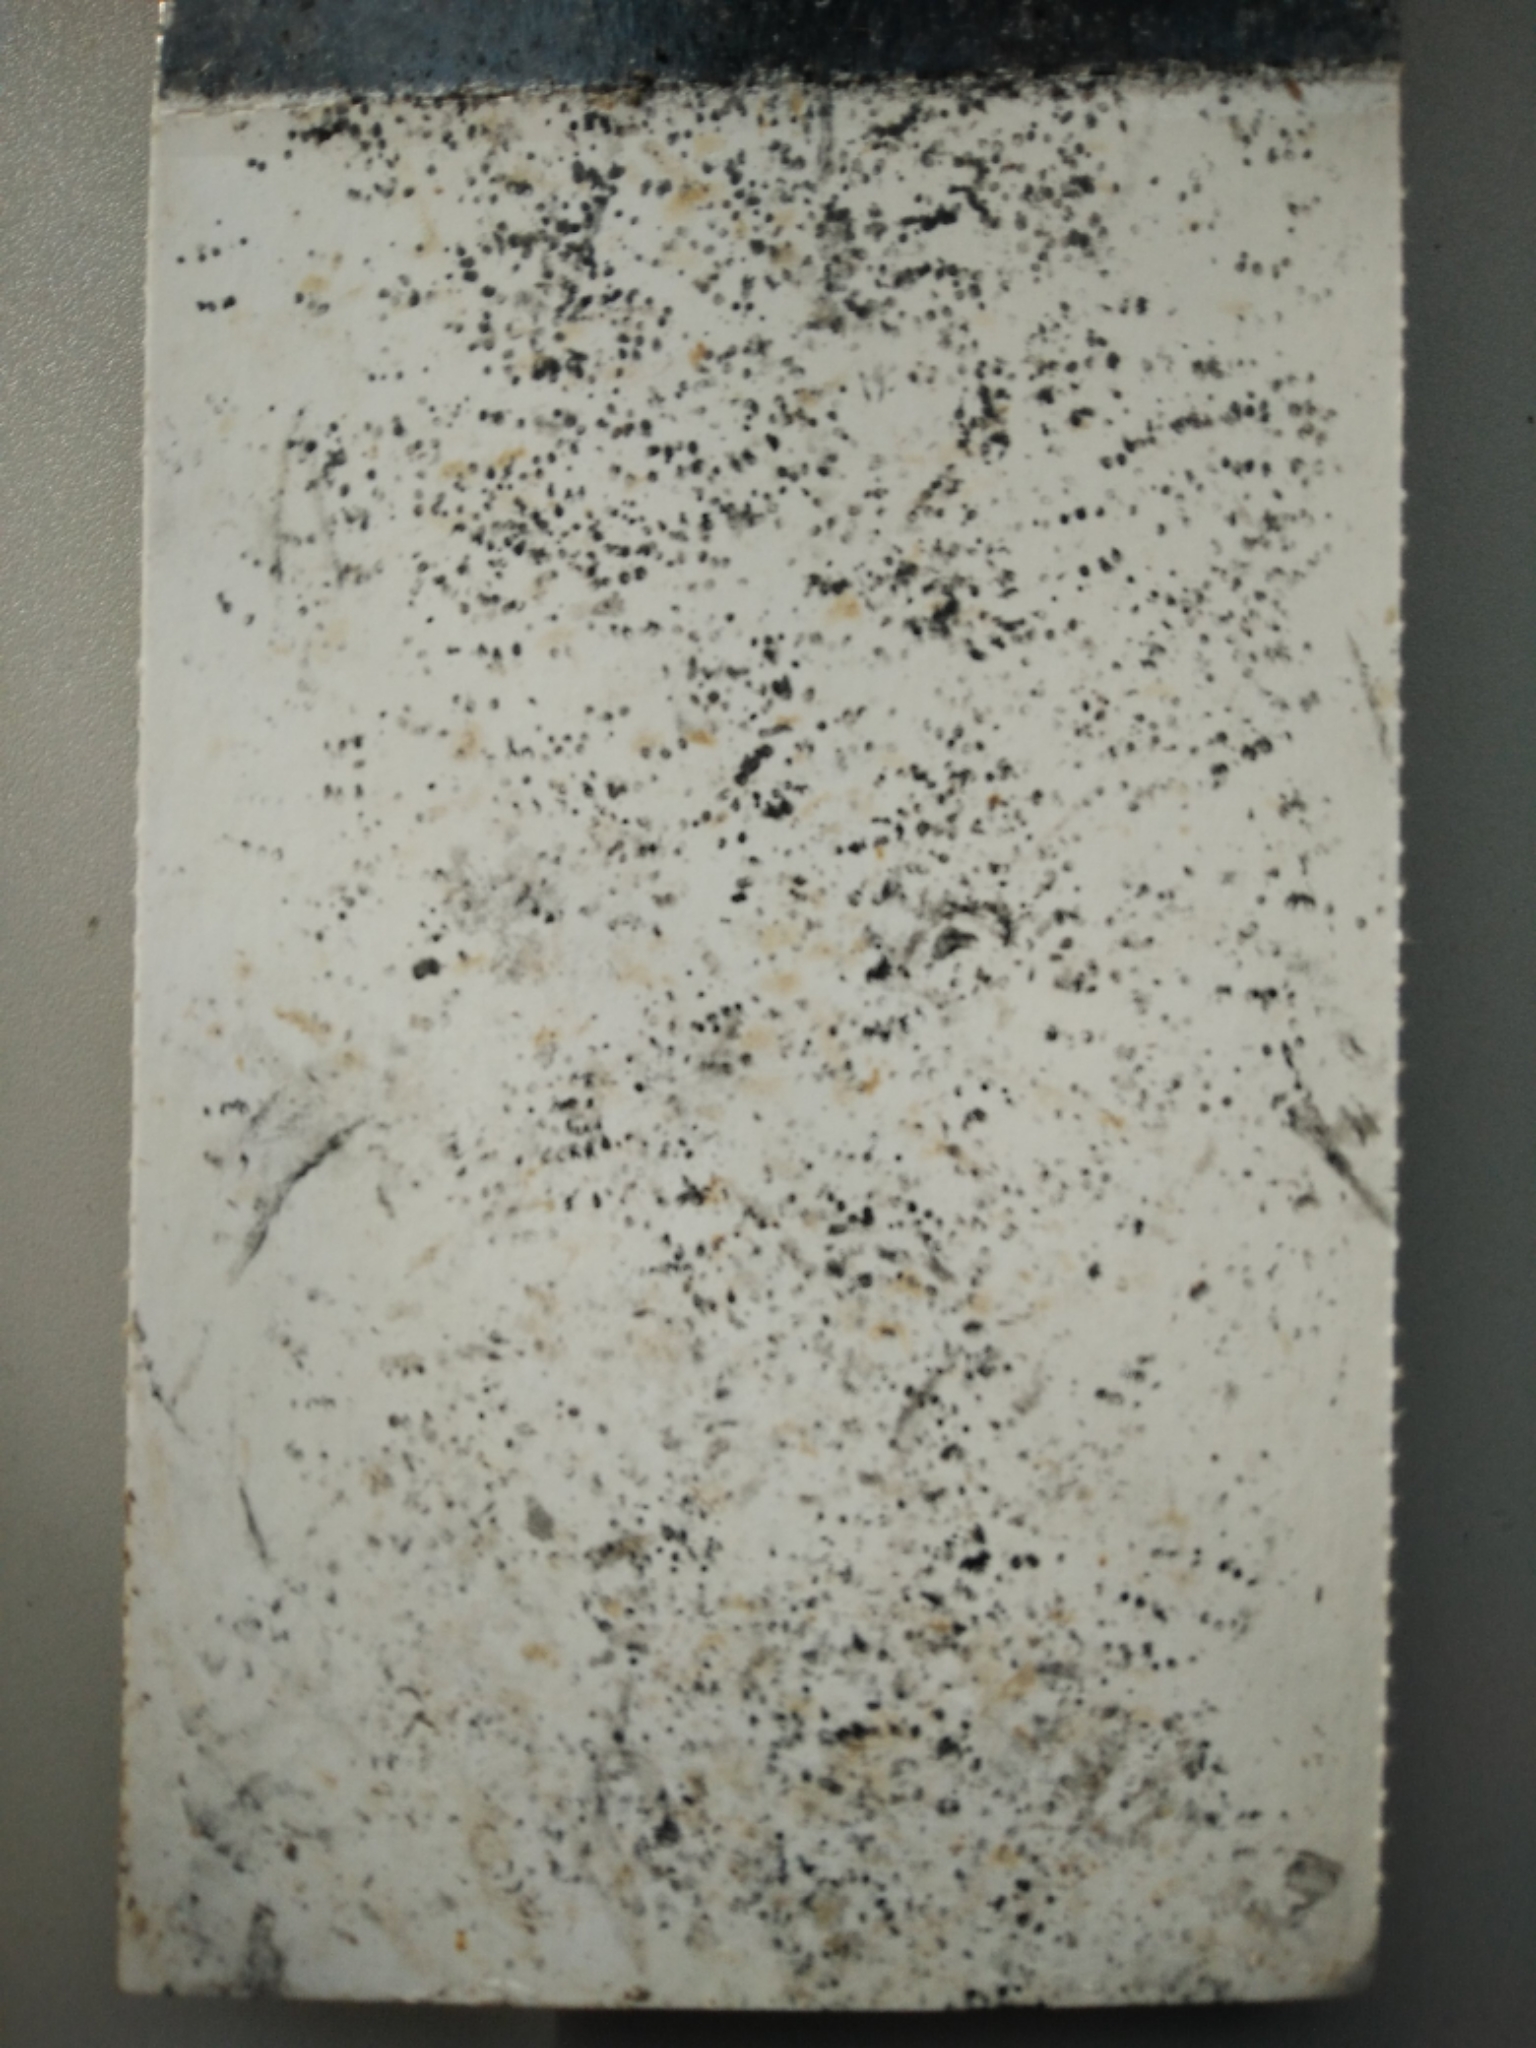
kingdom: Animalia
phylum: Chordata
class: Mammalia
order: Rodentia
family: Muridae
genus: Mus
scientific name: Mus musculus
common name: House mouse
